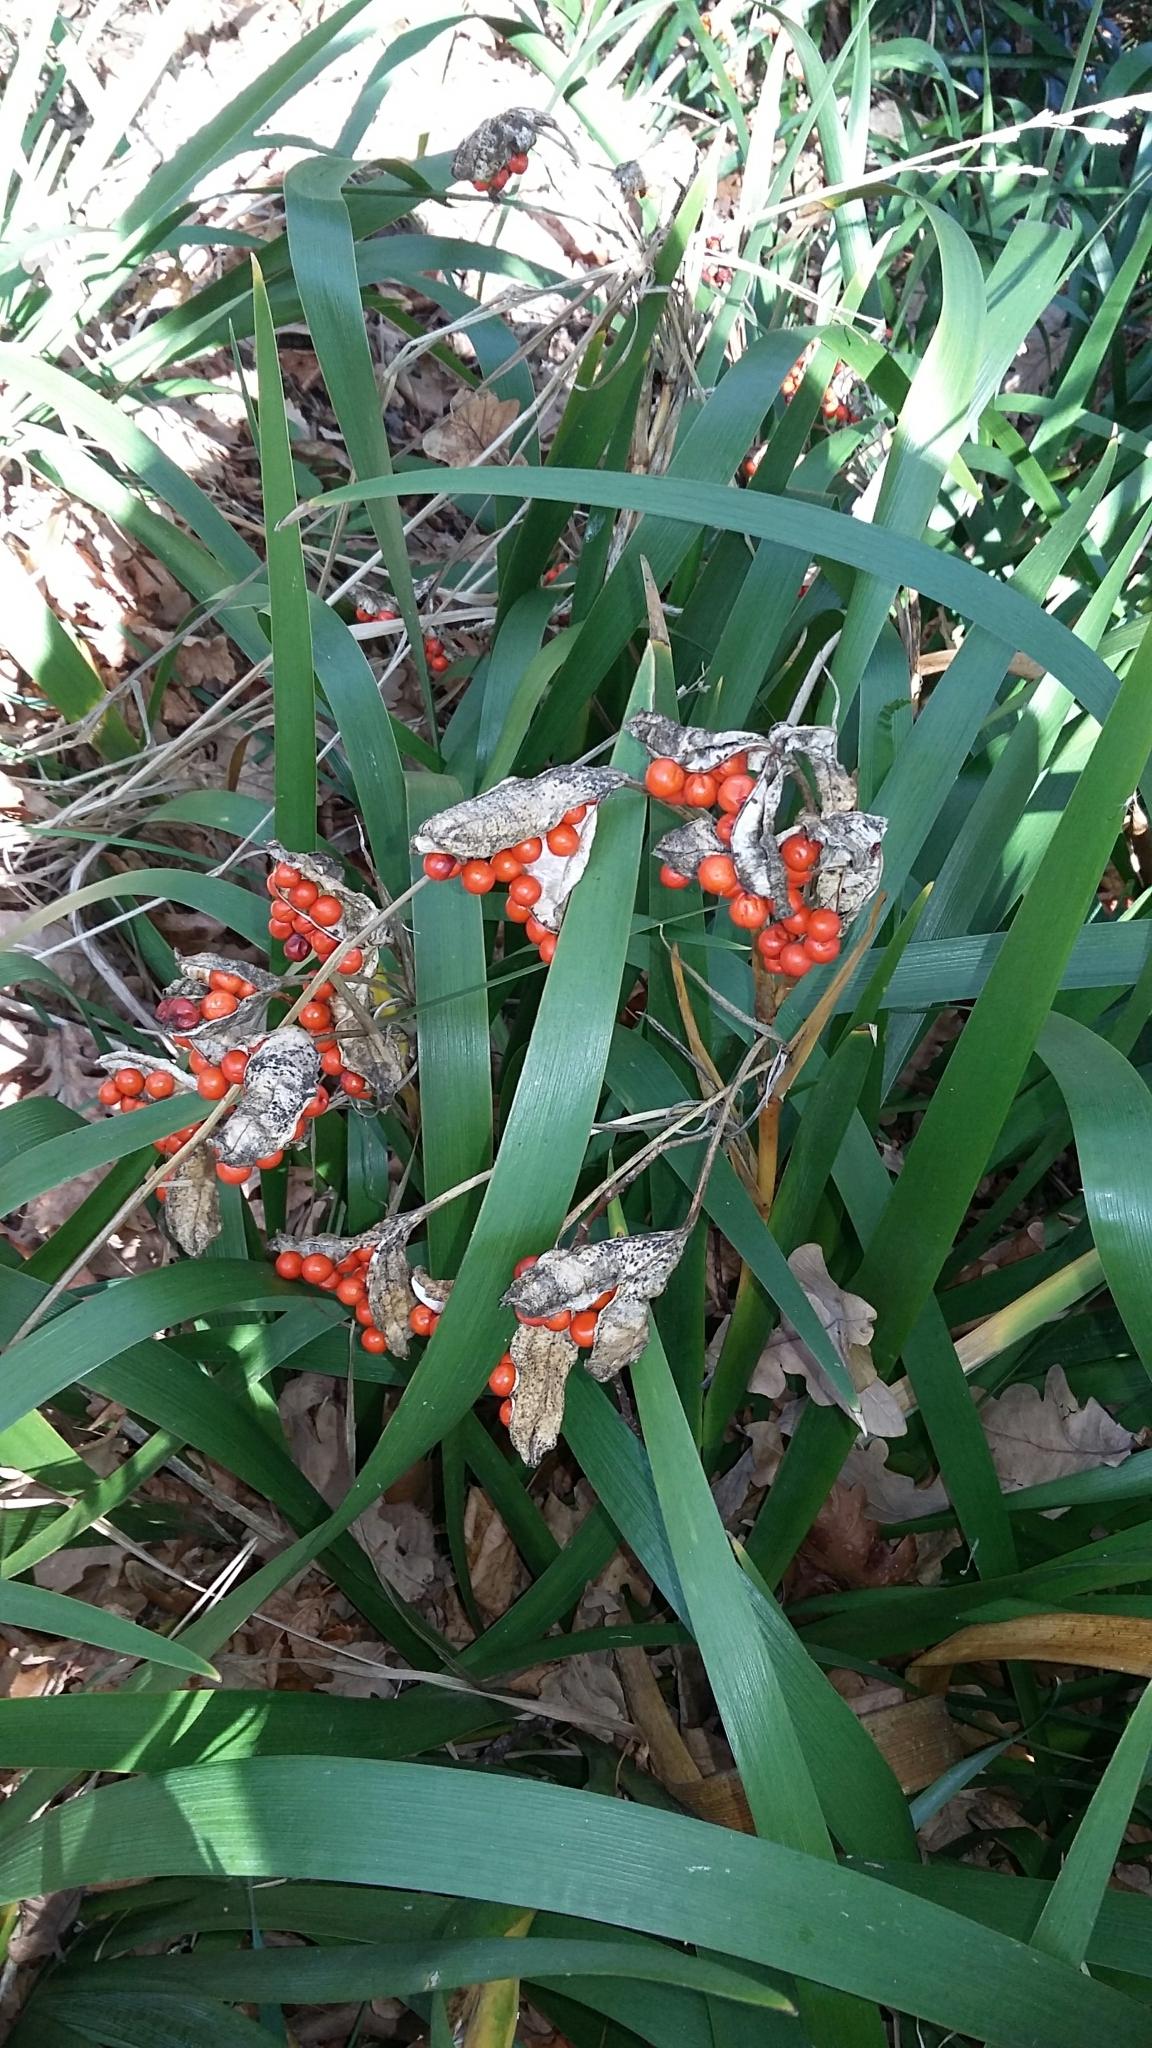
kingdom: Plantae
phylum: Tracheophyta
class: Liliopsida
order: Asparagales
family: Iridaceae
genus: Iris
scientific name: Iris foetidissima
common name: Stinking iris
